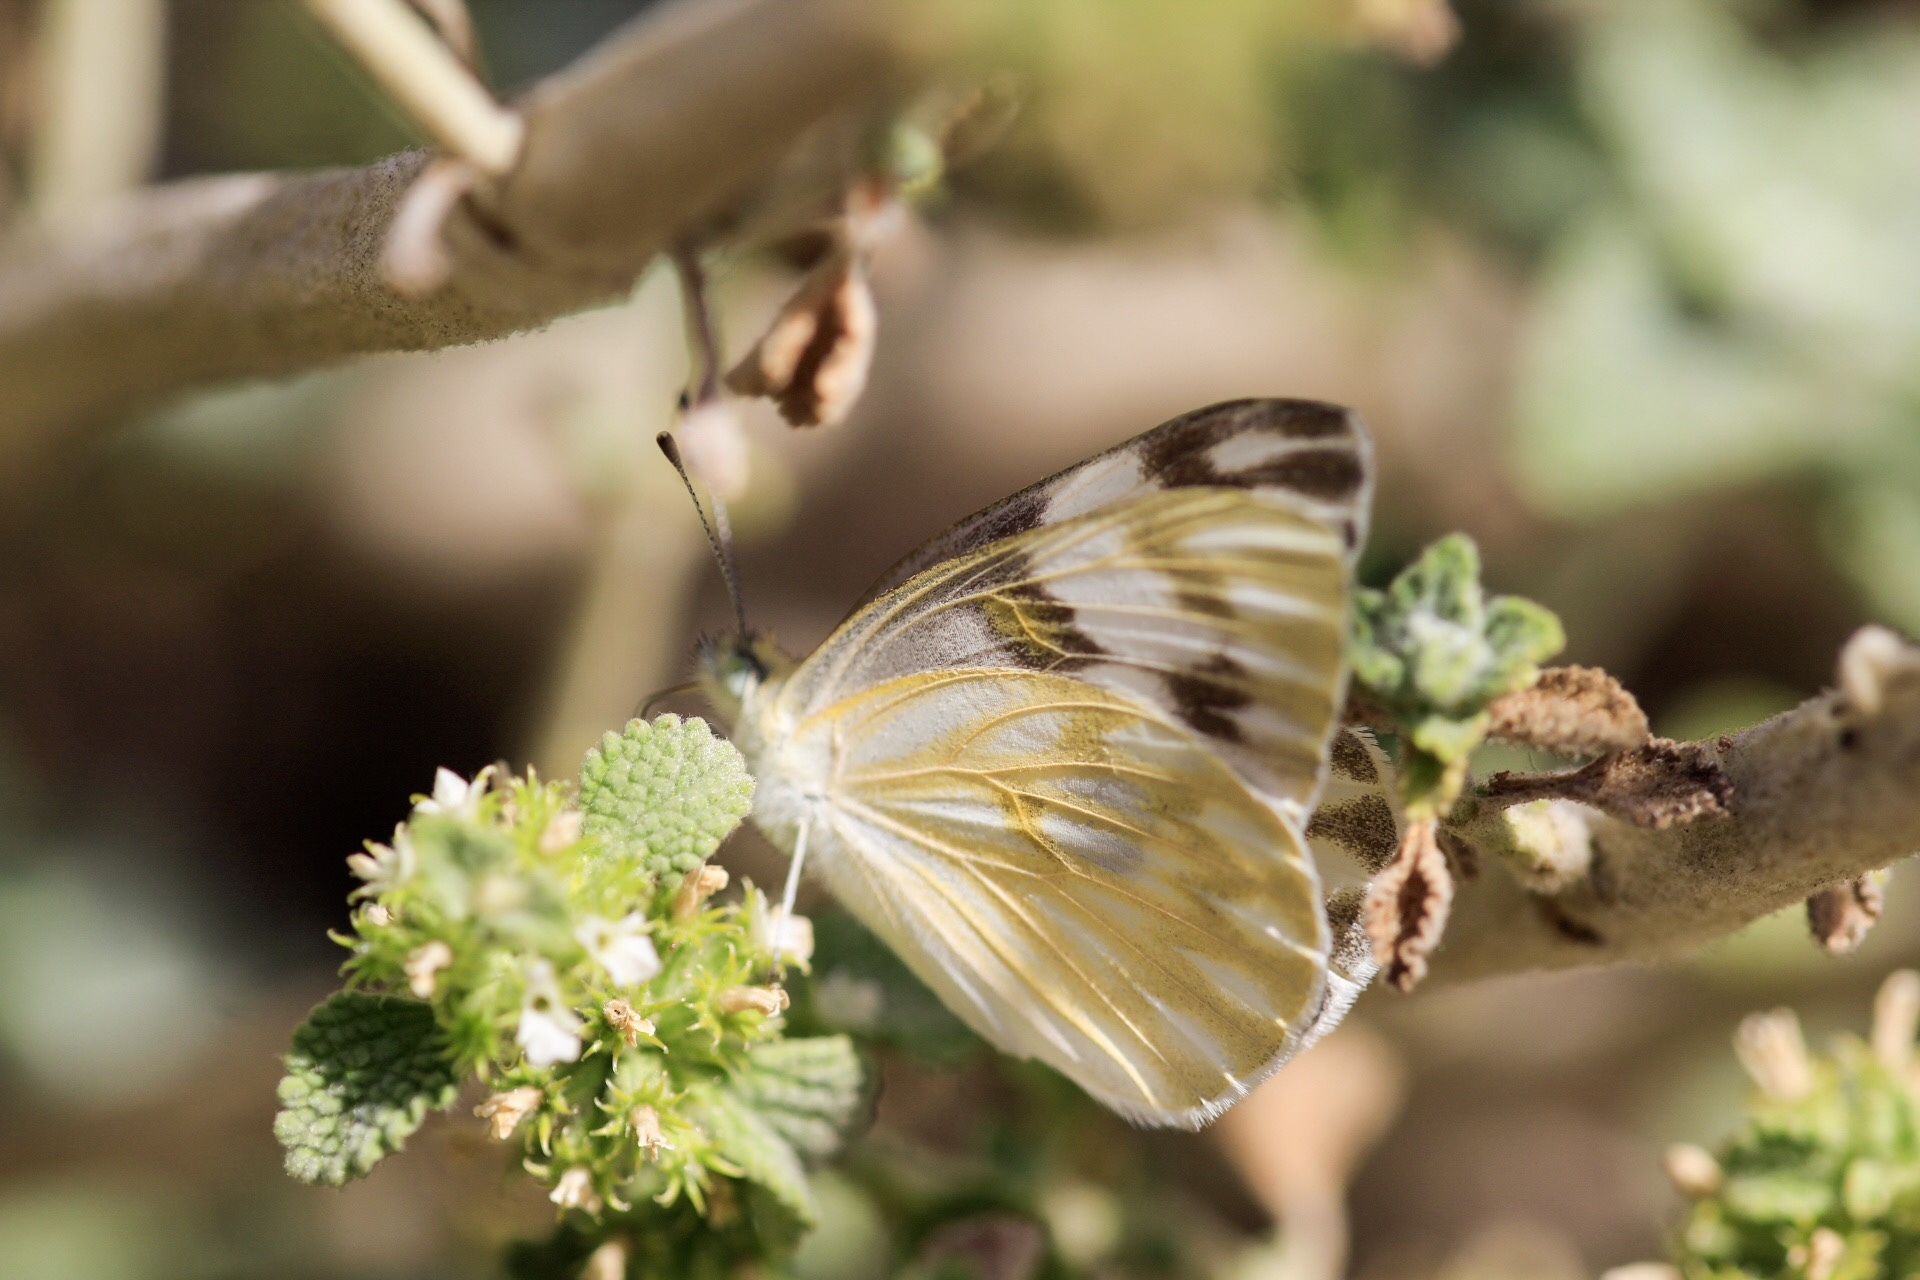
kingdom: Animalia
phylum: Arthropoda
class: Insecta
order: Lepidoptera
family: Pieridae
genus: Pontia
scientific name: Pontia protodice
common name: Checkered white
